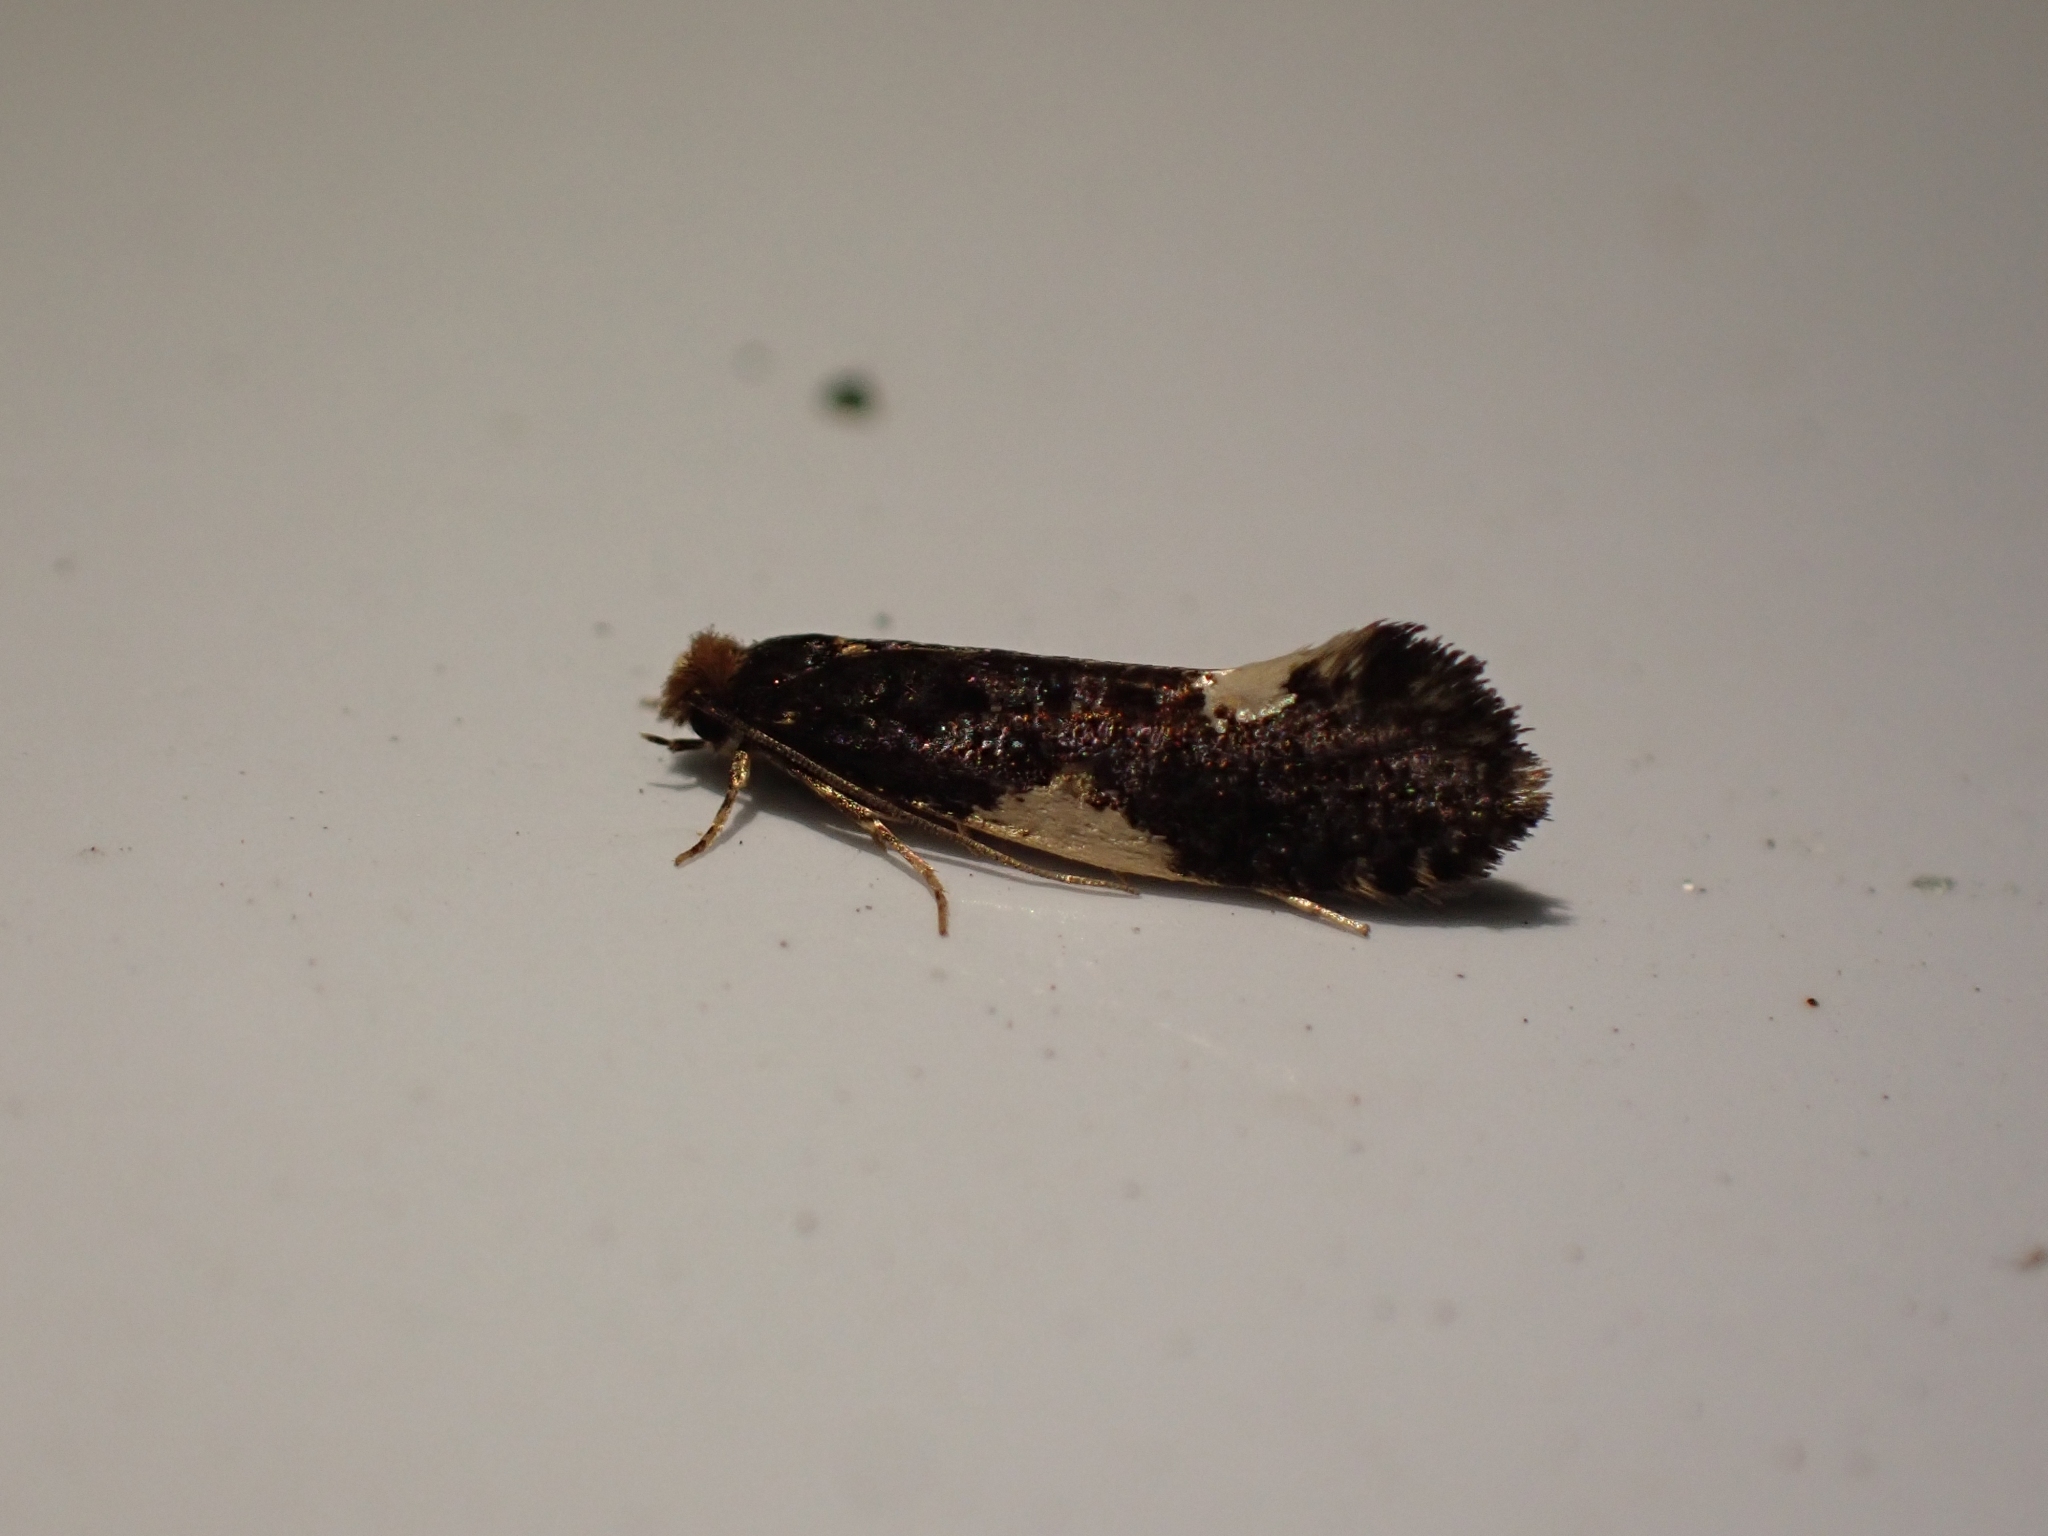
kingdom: Animalia
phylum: Arthropoda
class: Insecta
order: Lepidoptera
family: Tineidae
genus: Monopis
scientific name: Monopis spilotella
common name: Orange-headed monopis
